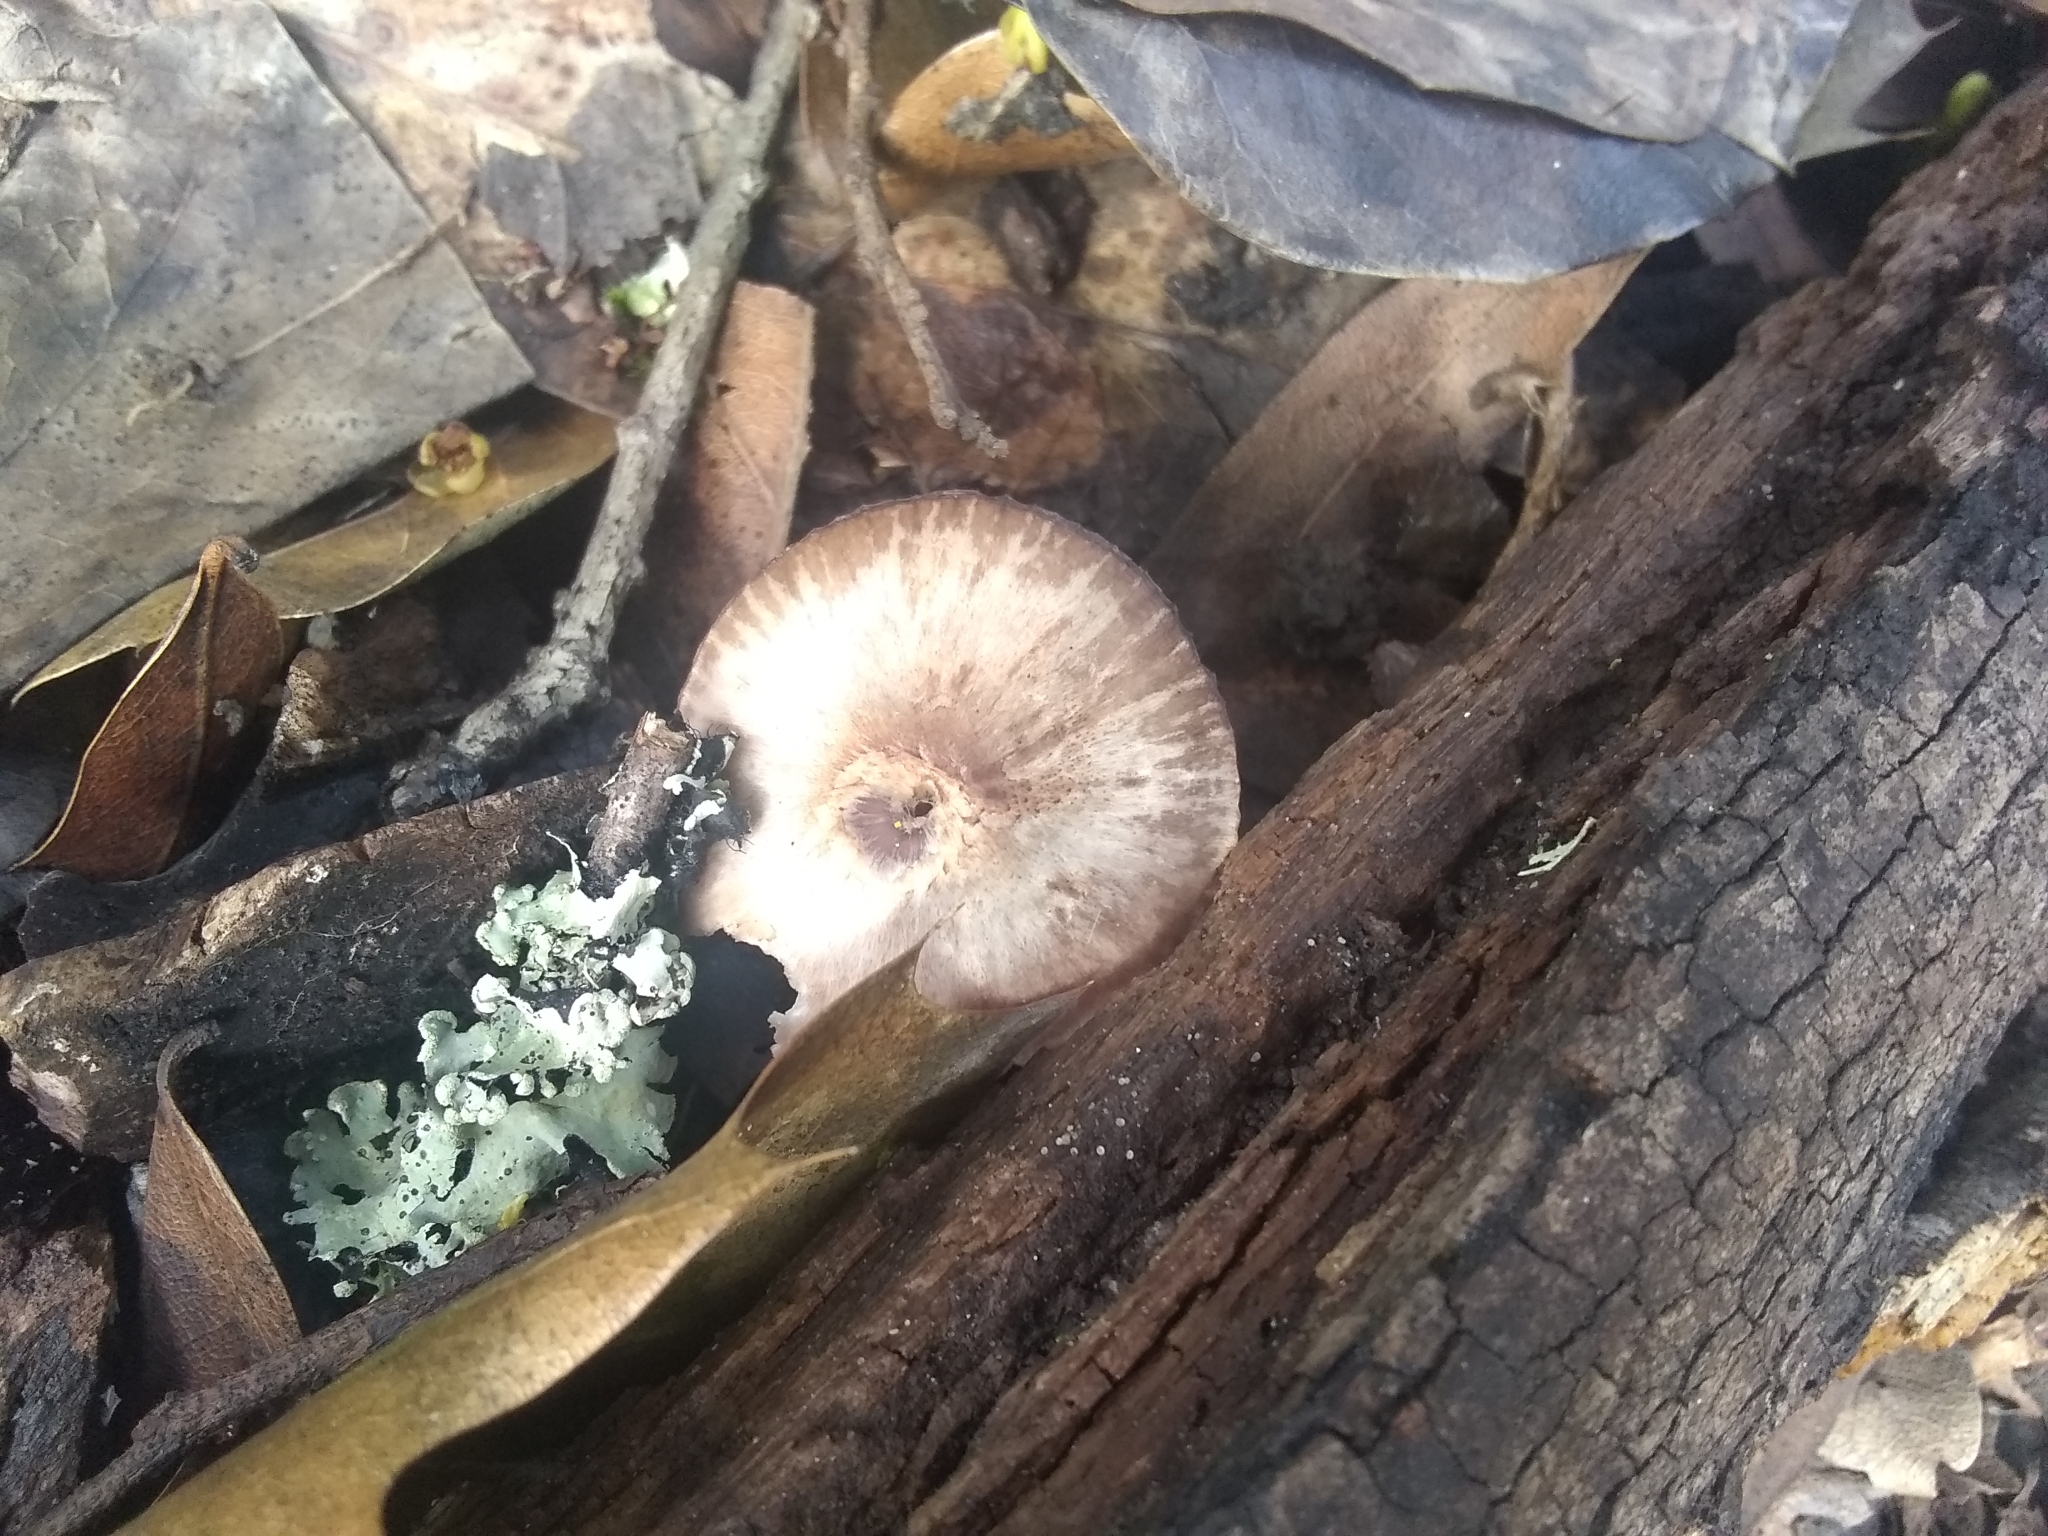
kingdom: Fungi
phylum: Basidiomycota
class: Agaricomycetes
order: Agaricales
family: Mycenaceae
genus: Mycena
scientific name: Mycena haematopus
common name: Burgundydrop bonnet
